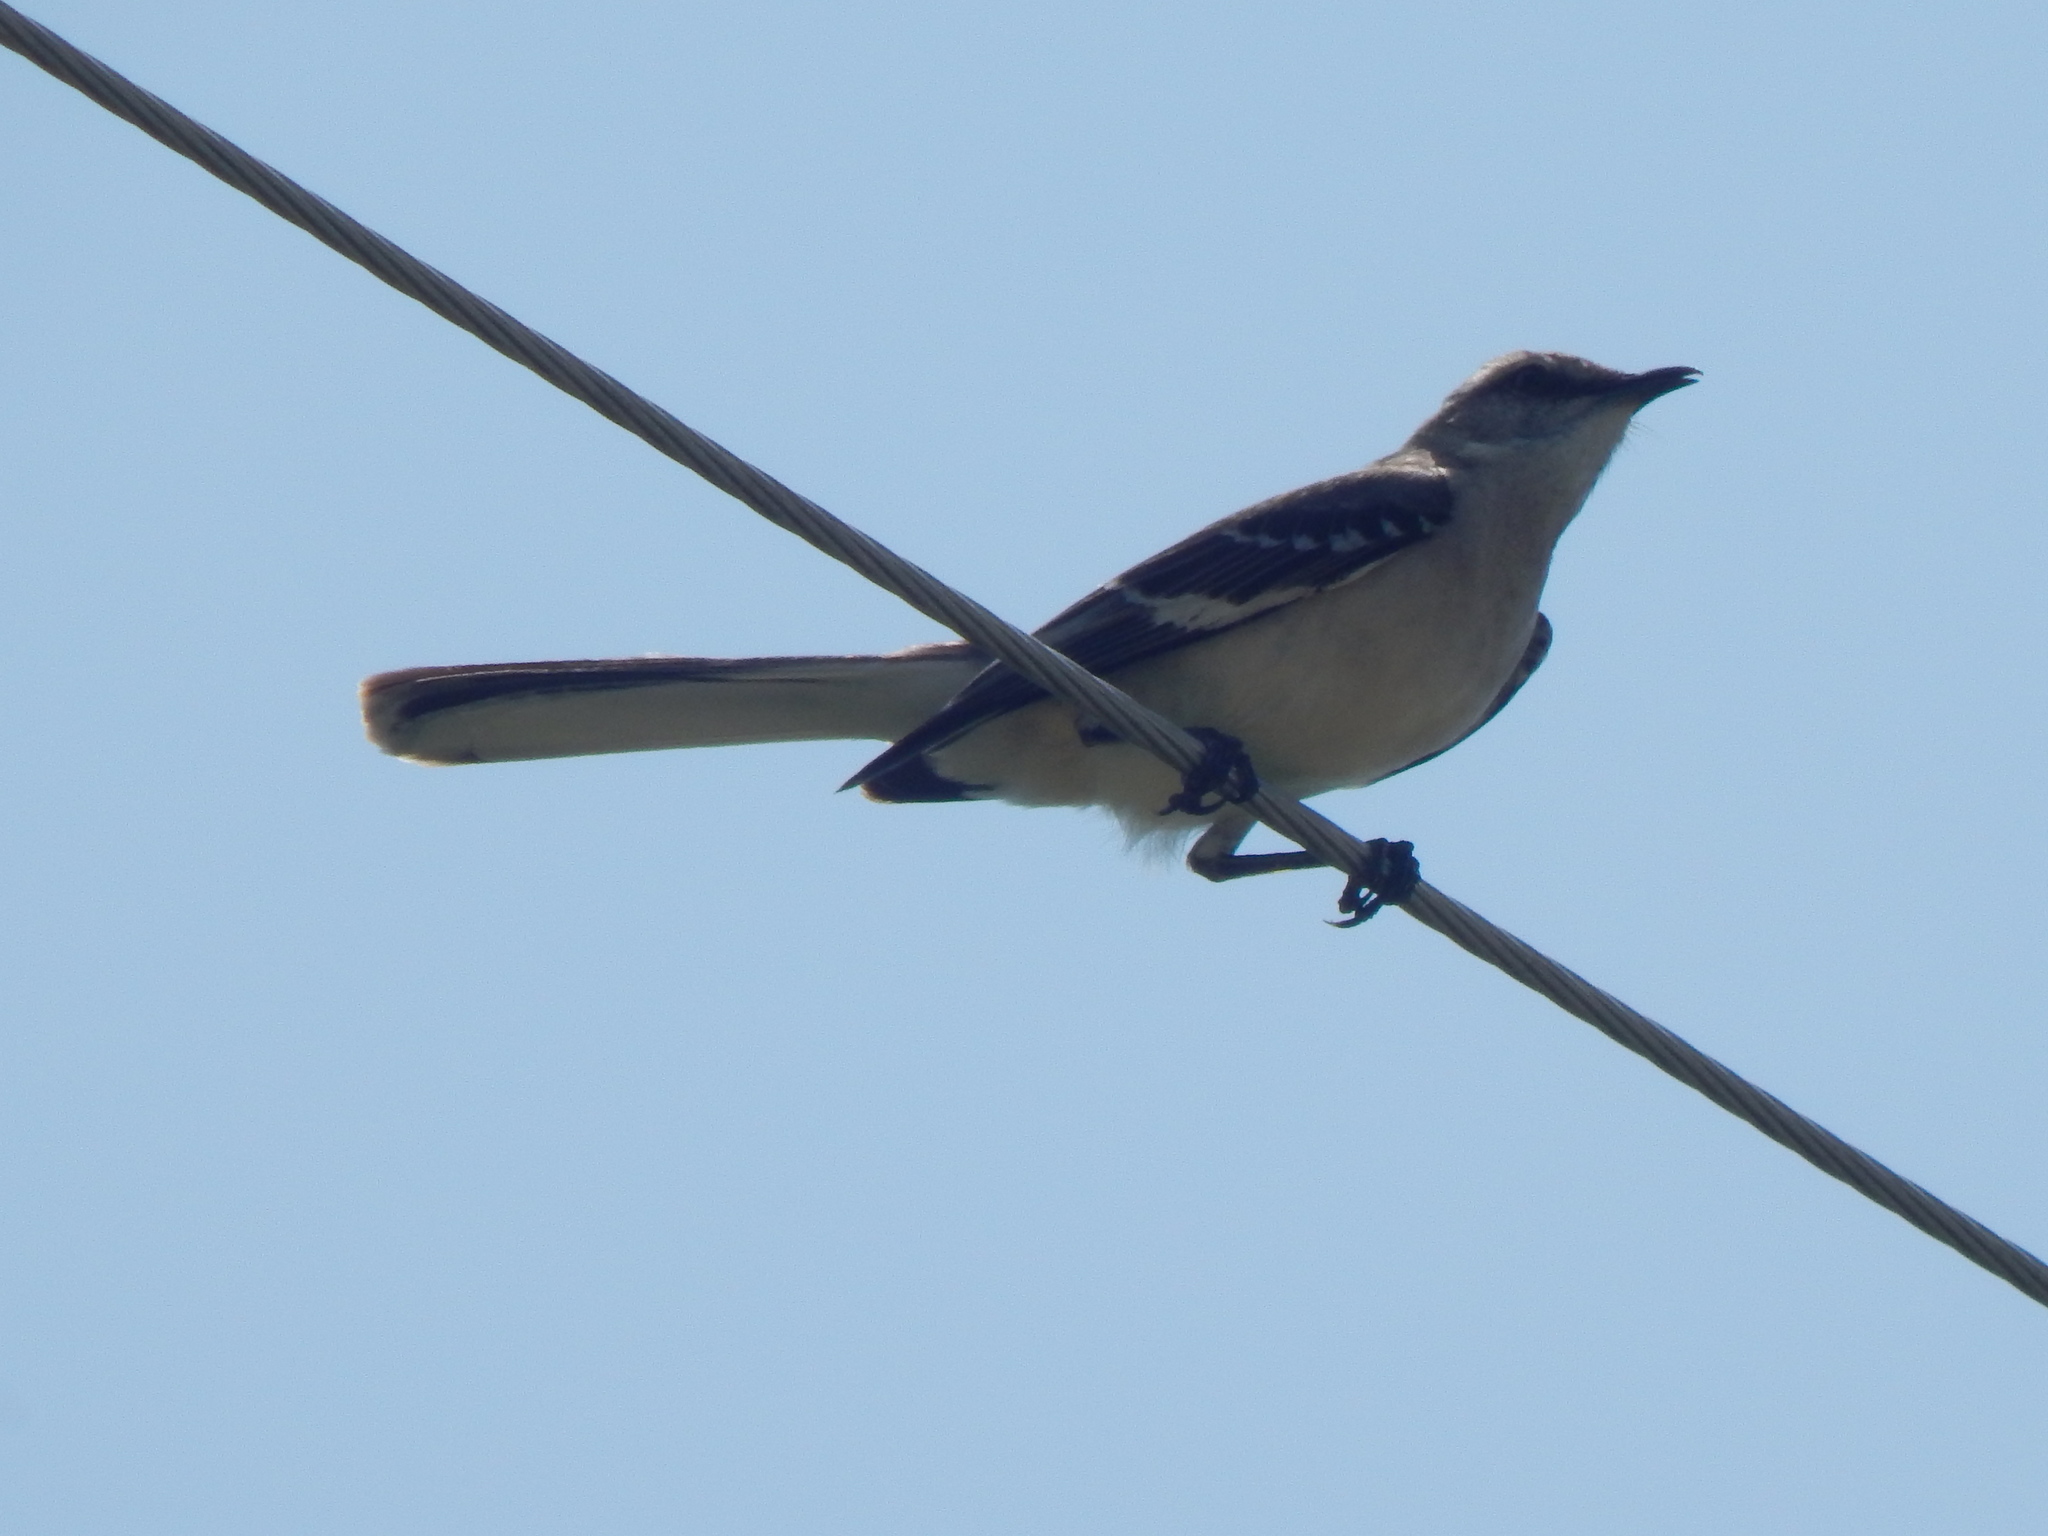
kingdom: Animalia
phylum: Chordata
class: Aves
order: Passeriformes
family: Mimidae
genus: Mimus
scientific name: Mimus polyglottos
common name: Northern mockingbird
